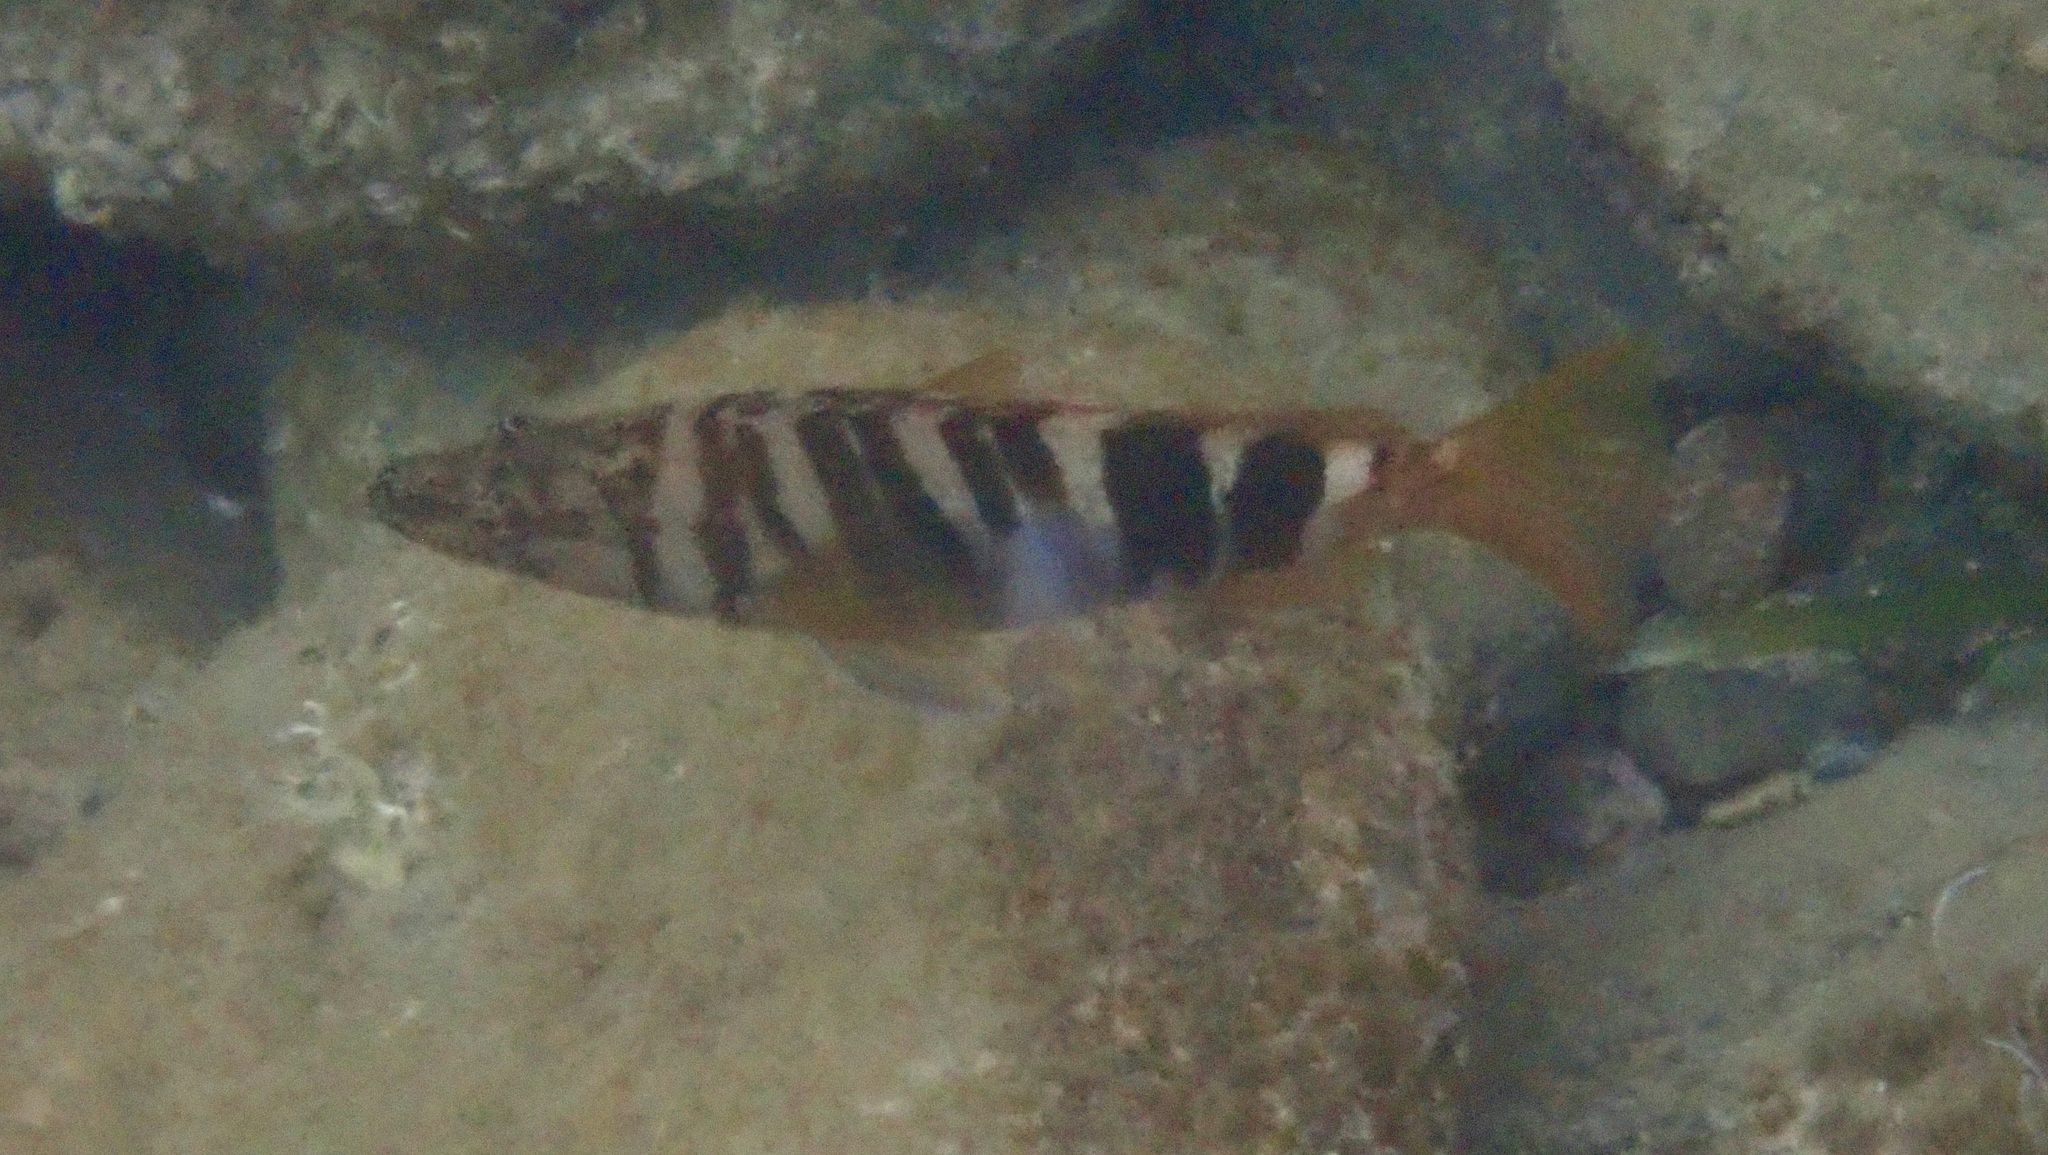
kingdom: Animalia
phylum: Chordata
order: Perciformes
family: Serranidae
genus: Serranus
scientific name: Serranus scriba
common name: Painted comber
